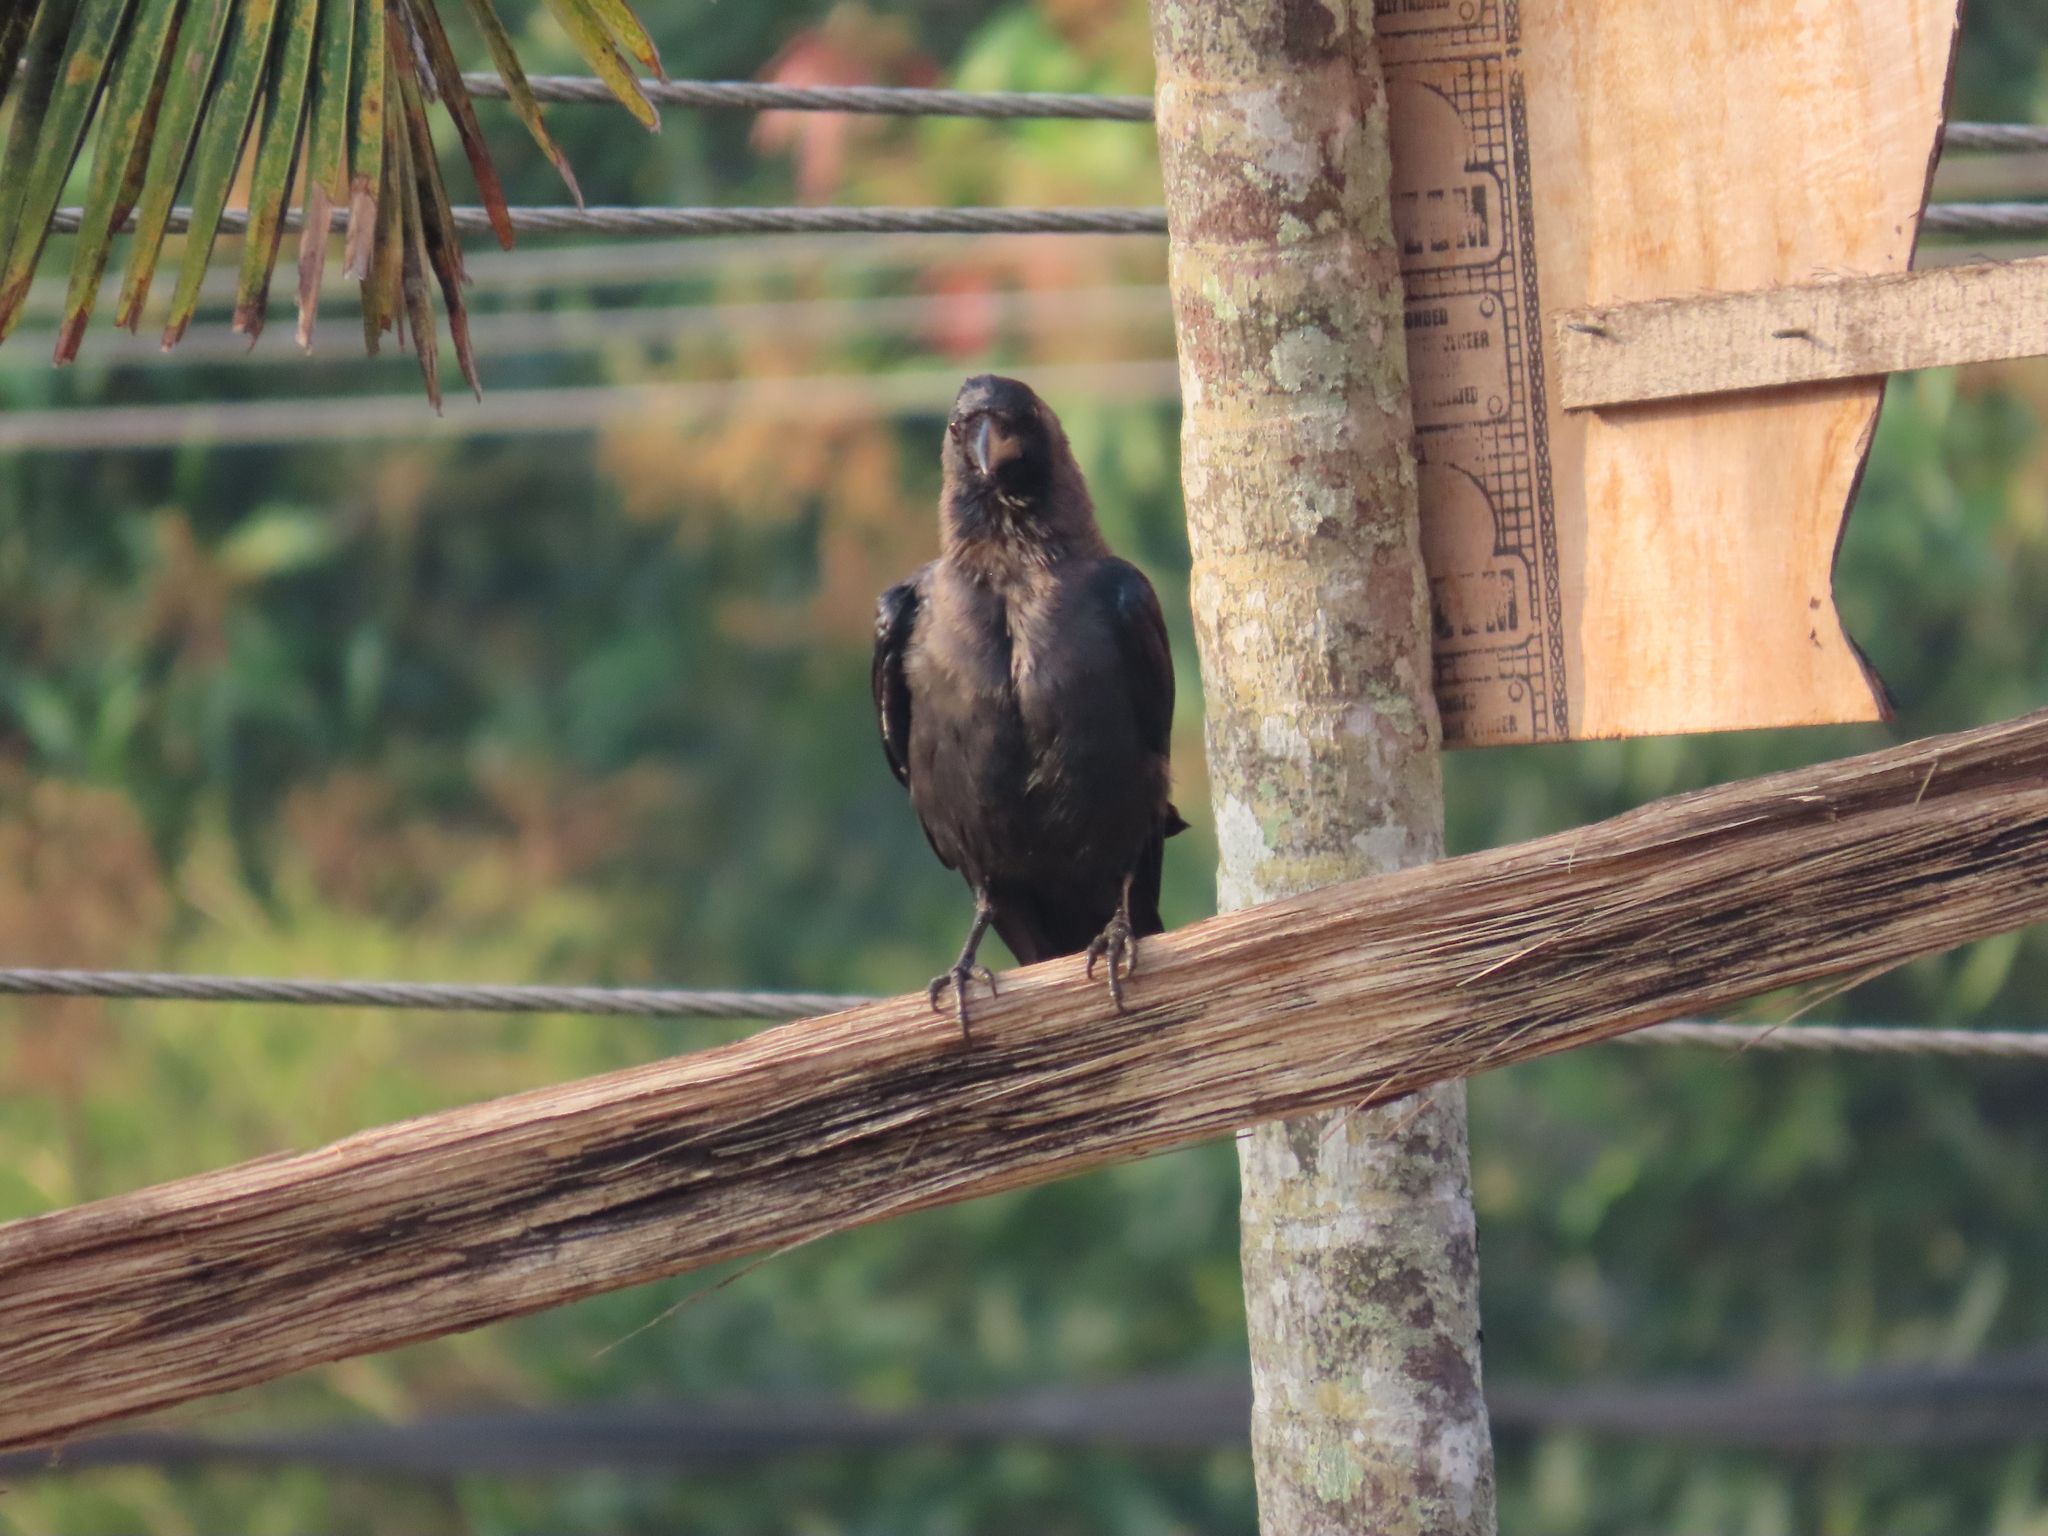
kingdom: Animalia
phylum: Chordata
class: Aves
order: Passeriformes
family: Corvidae
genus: Corvus
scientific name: Corvus splendens
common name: House crow
